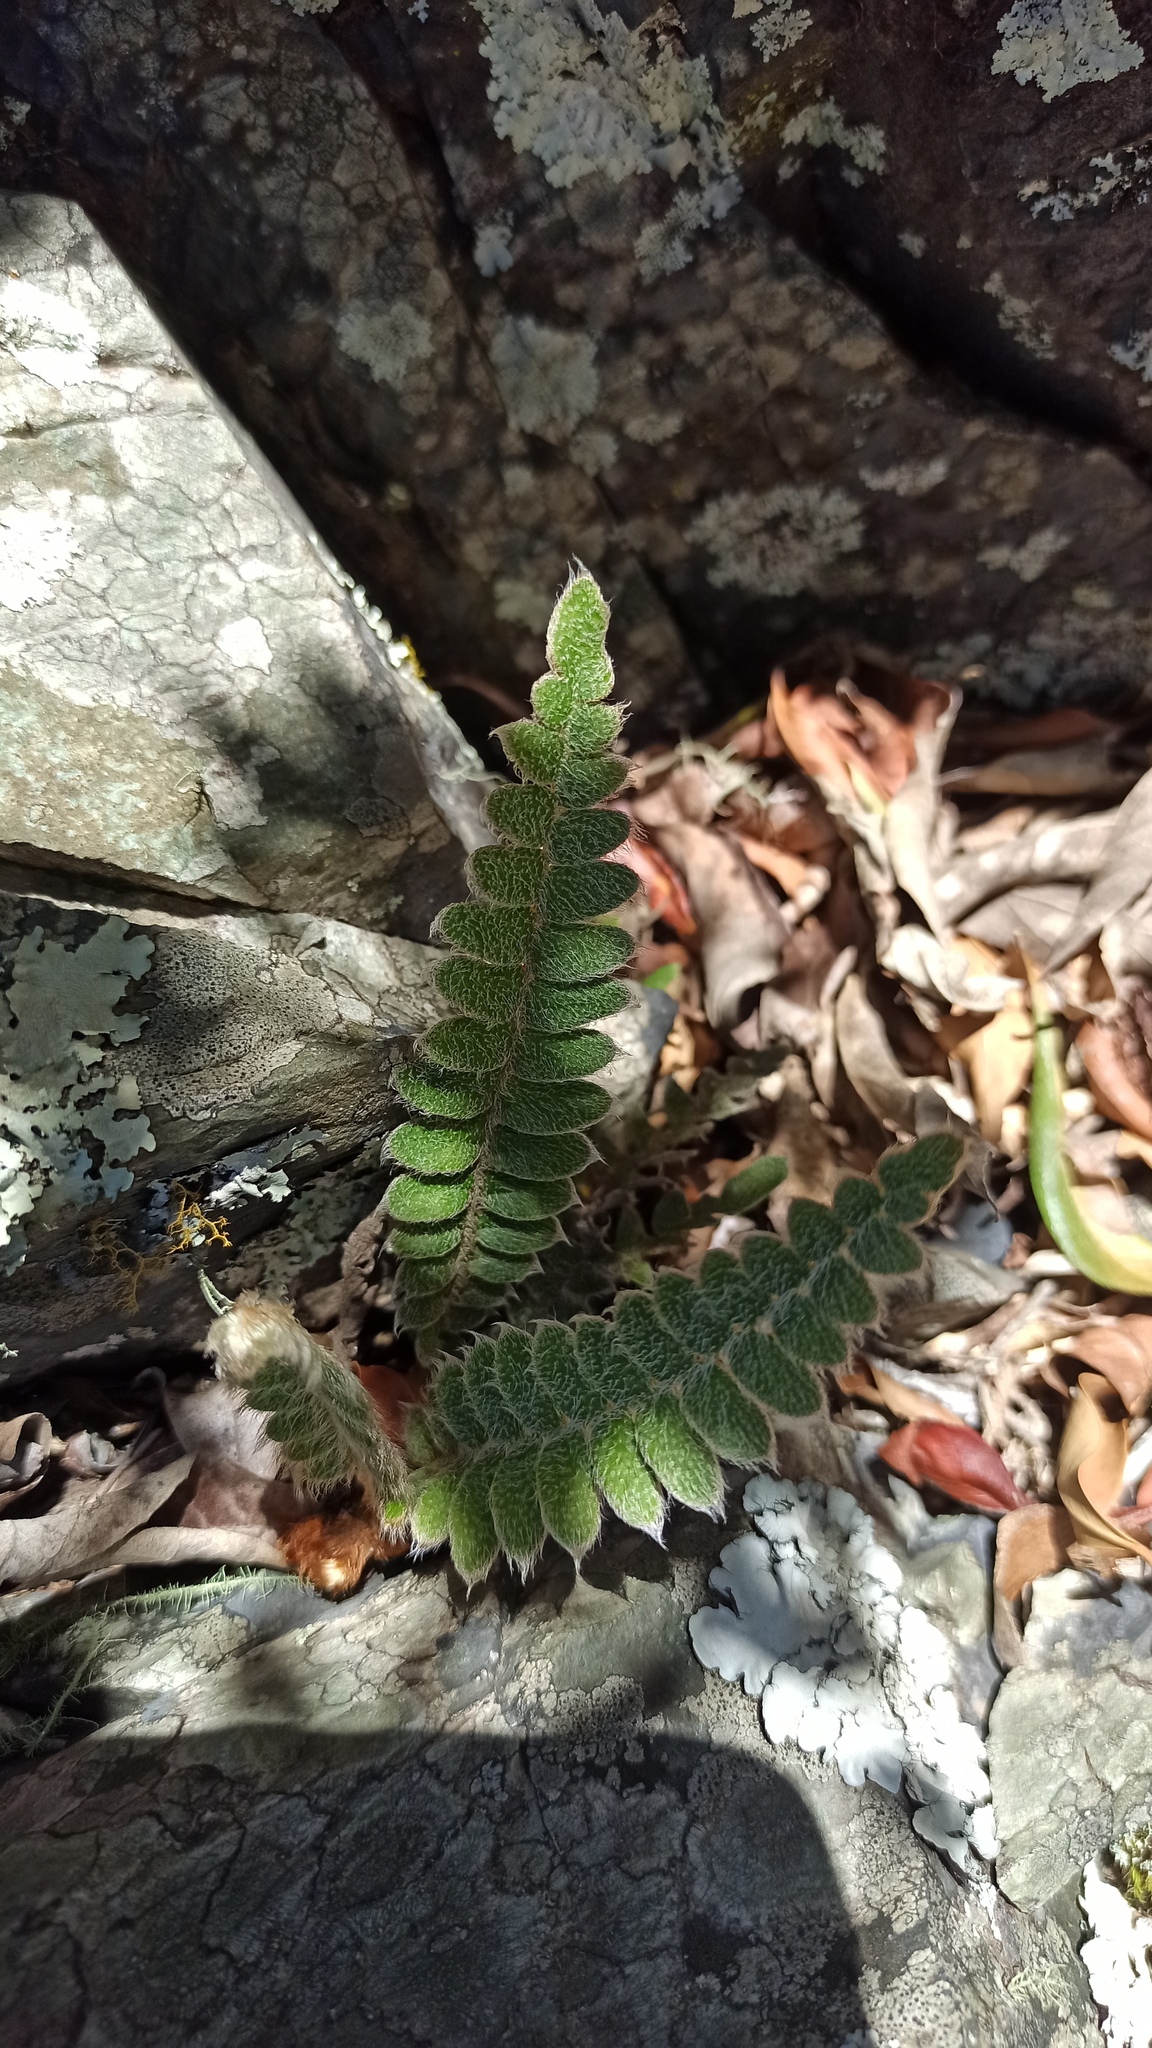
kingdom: Plantae
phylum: Tracheophyta
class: Polypodiopsida
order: Polypodiales
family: Polypodiaceae
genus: Pleopeltis
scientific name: Pleopeltis lepidopteris
